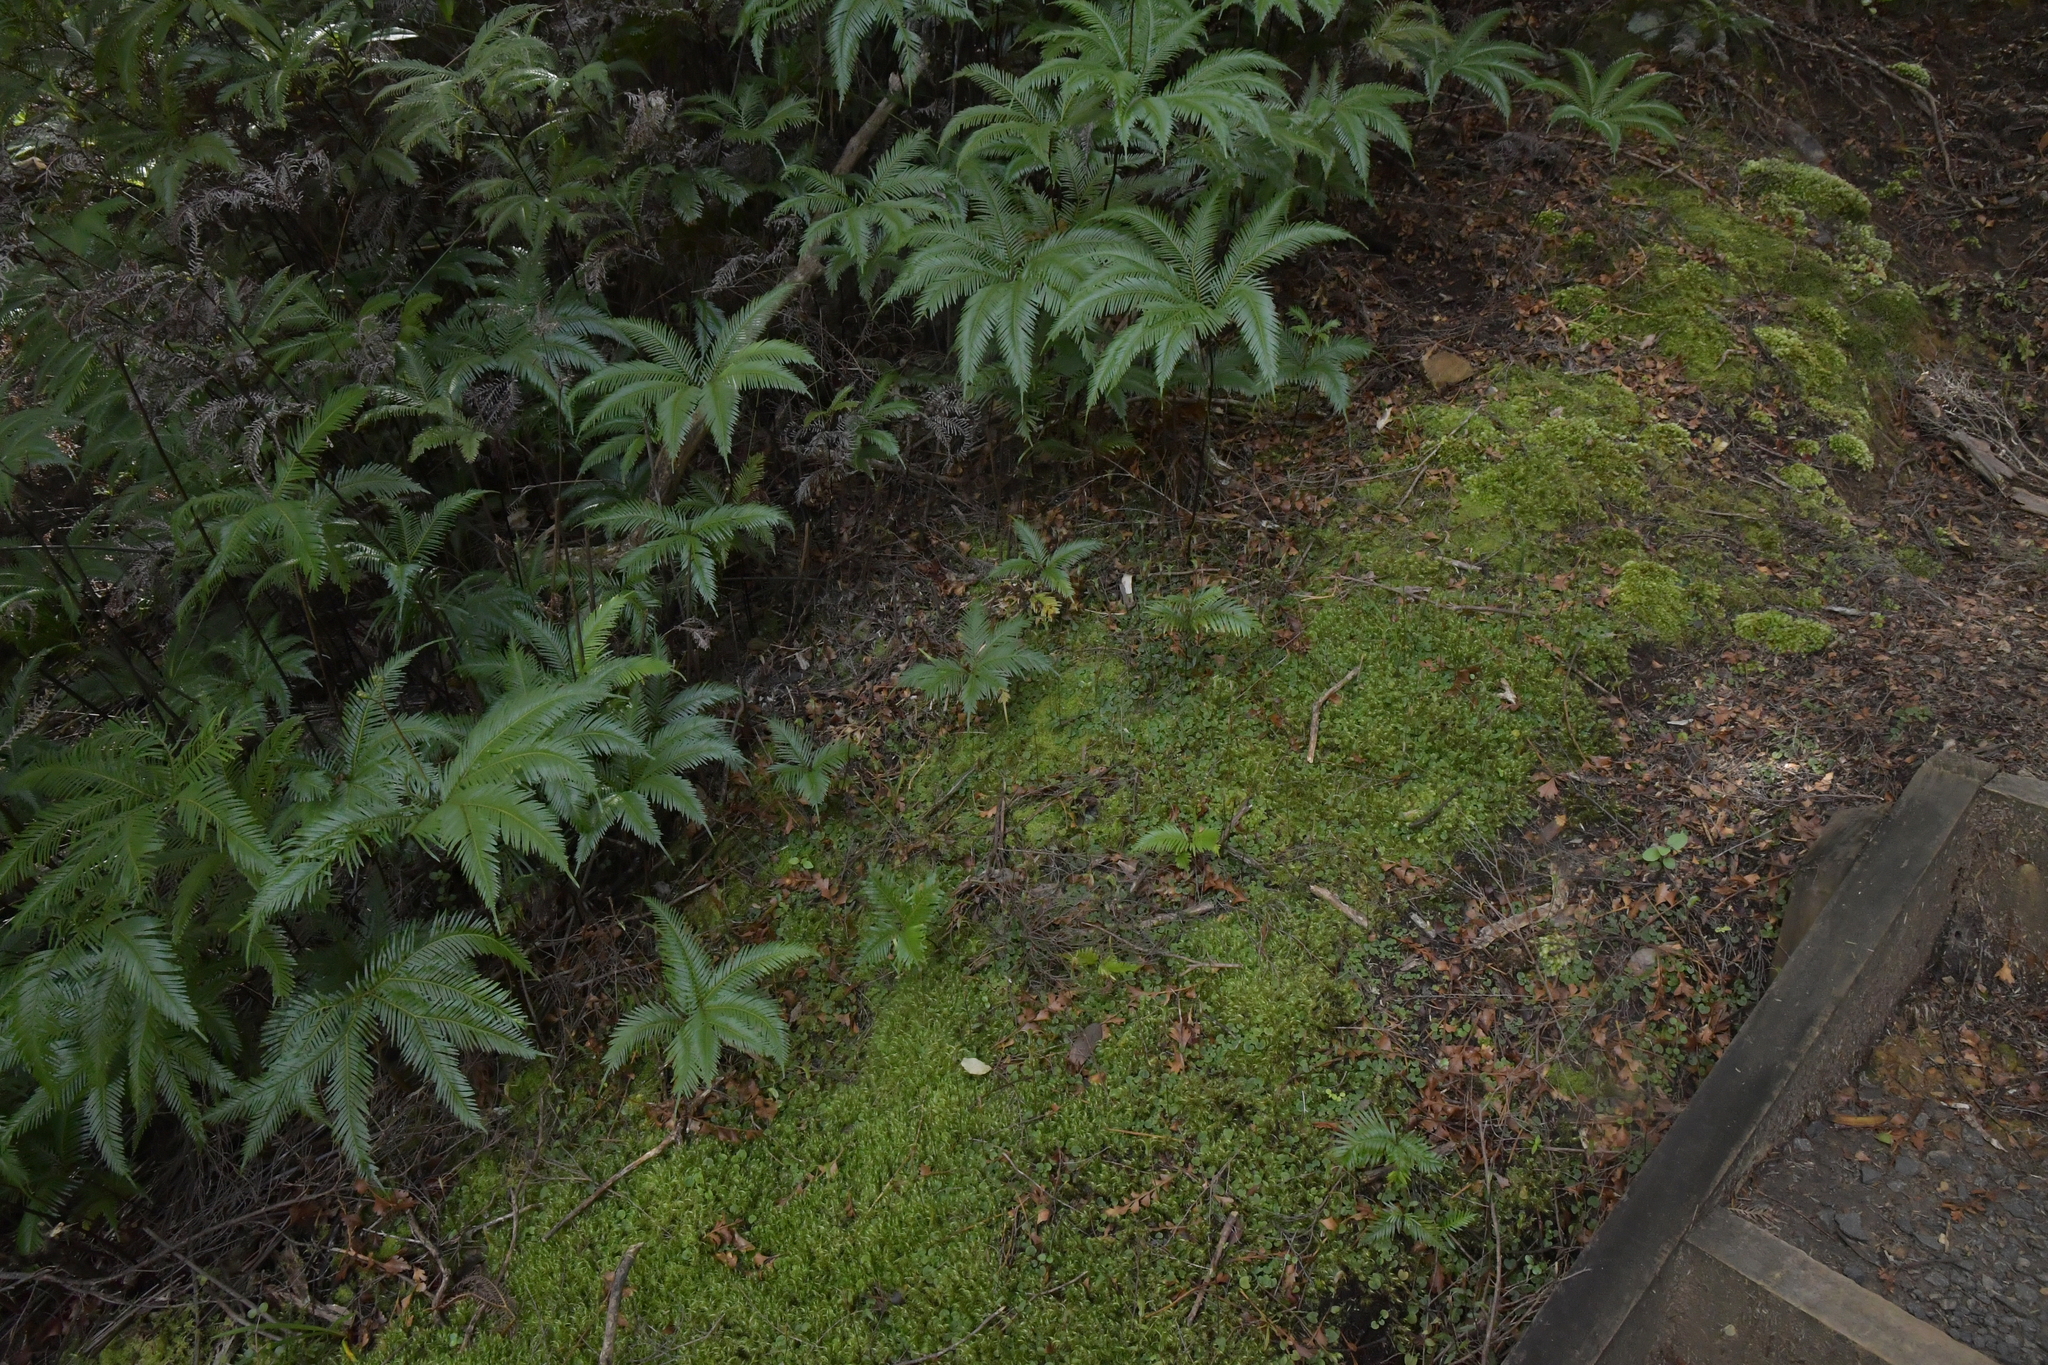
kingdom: Plantae
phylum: Tracheophyta
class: Liliopsida
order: Asparagales
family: Orchidaceae
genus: Pterostylis
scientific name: Pterostylis trullifolia
